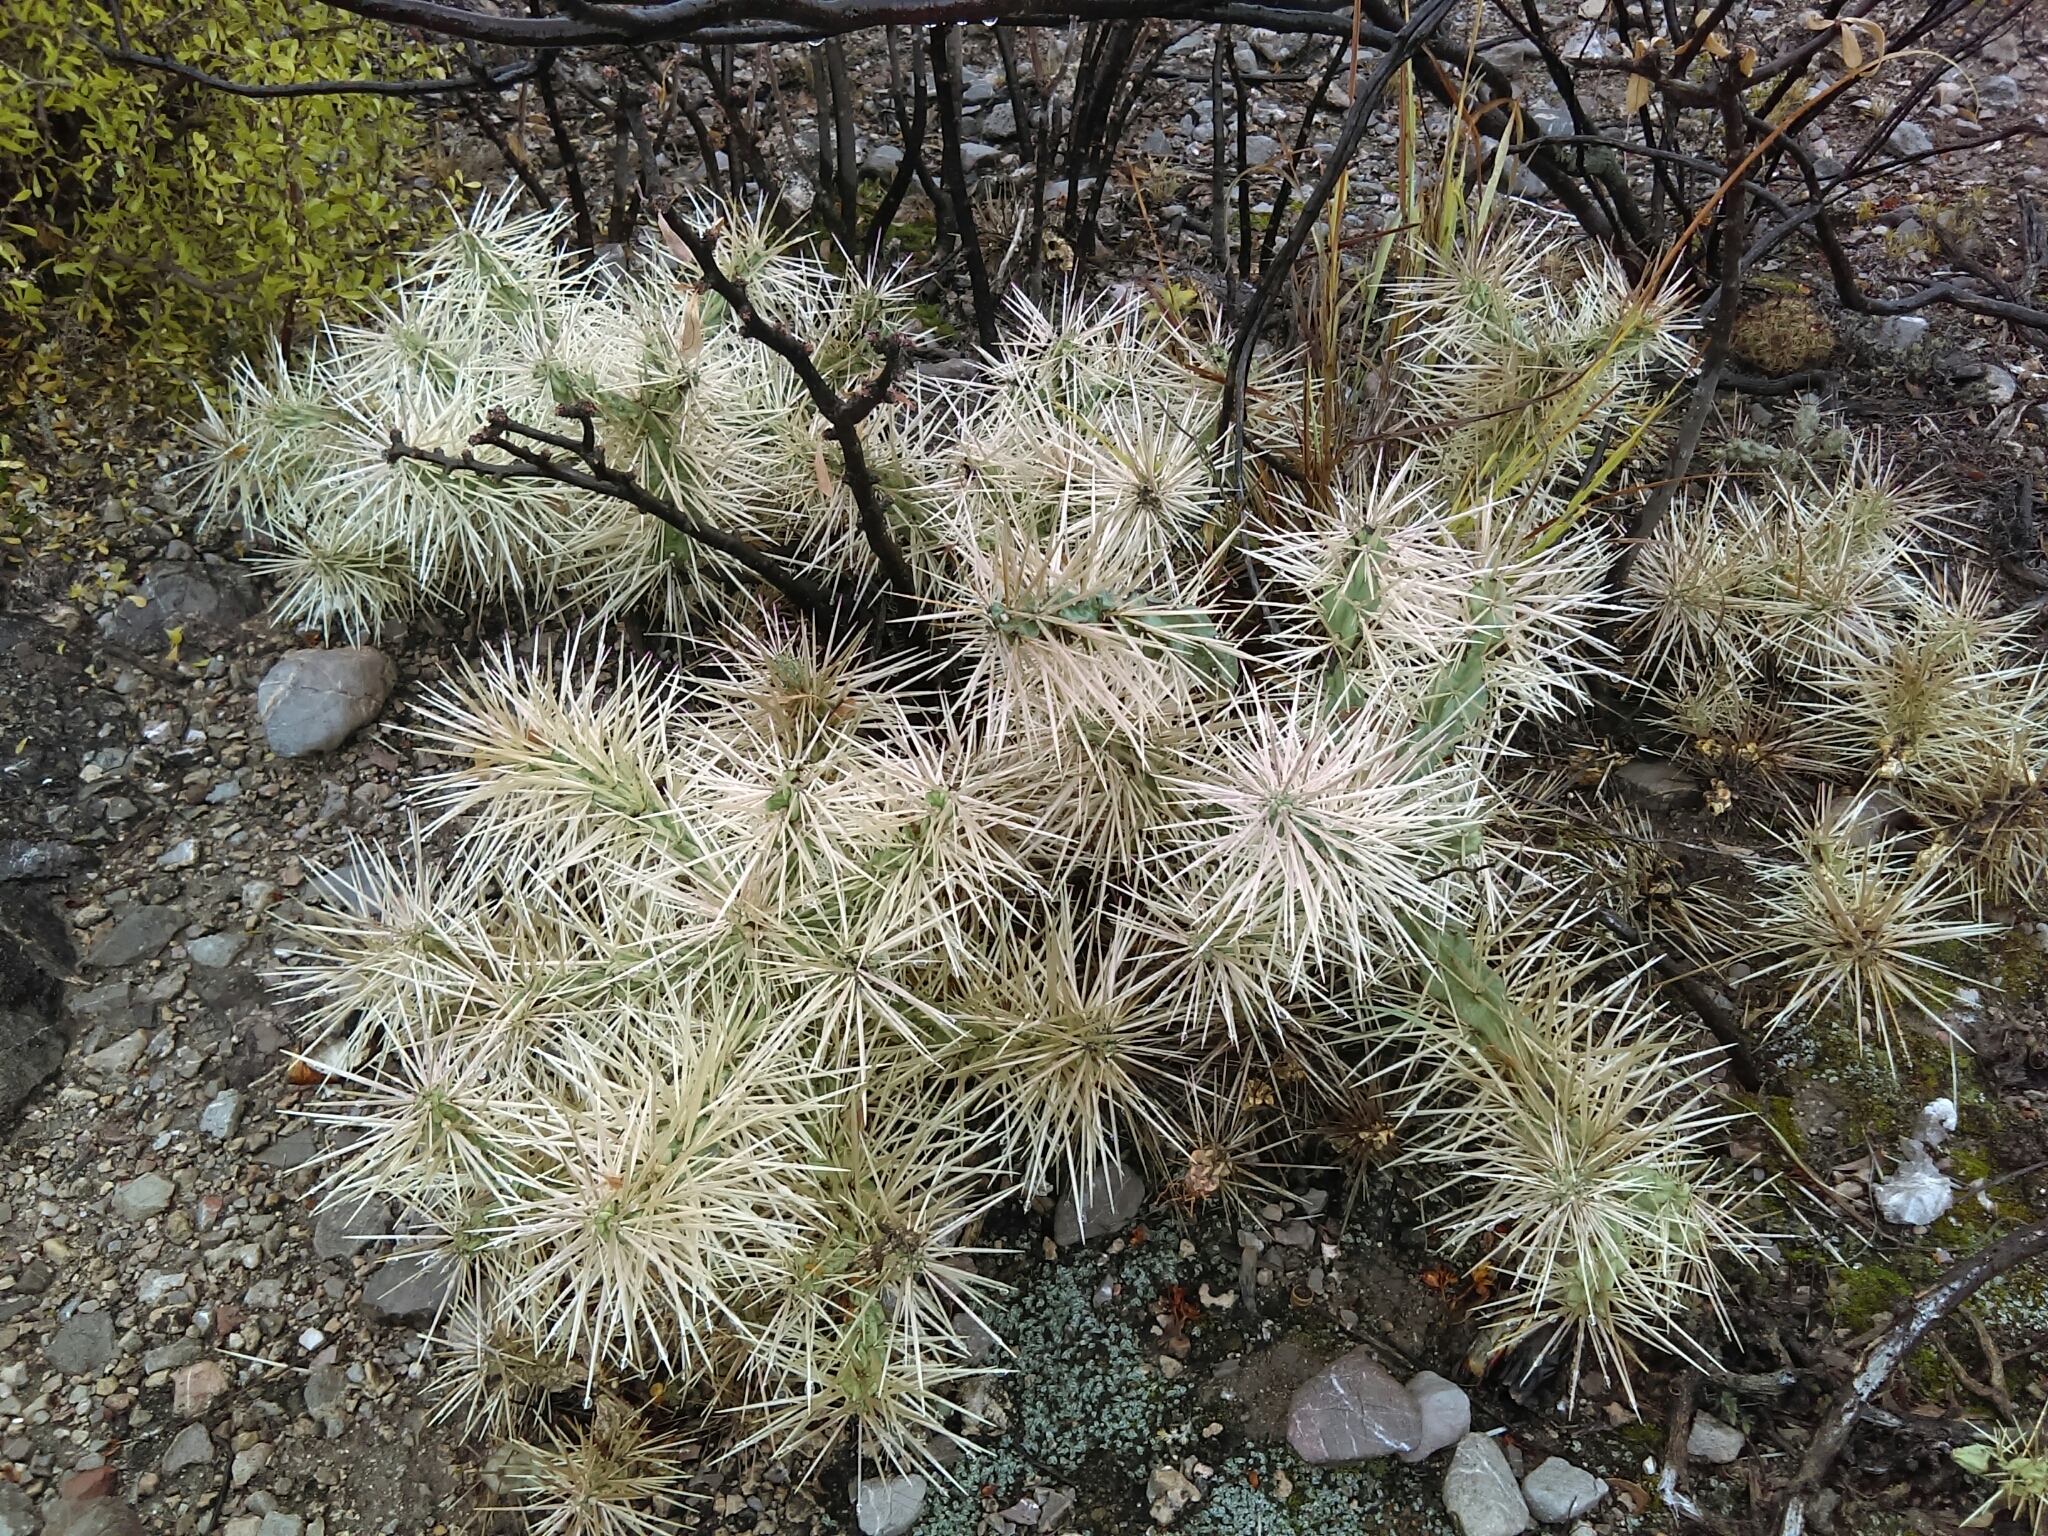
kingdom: Plantae
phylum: Tracheophyta
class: Magnoliopsida
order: Caryophyllales
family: Cactaceae
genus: Cylindropuntia
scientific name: Cylindropuntia tunicata
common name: Sheathed cholla
